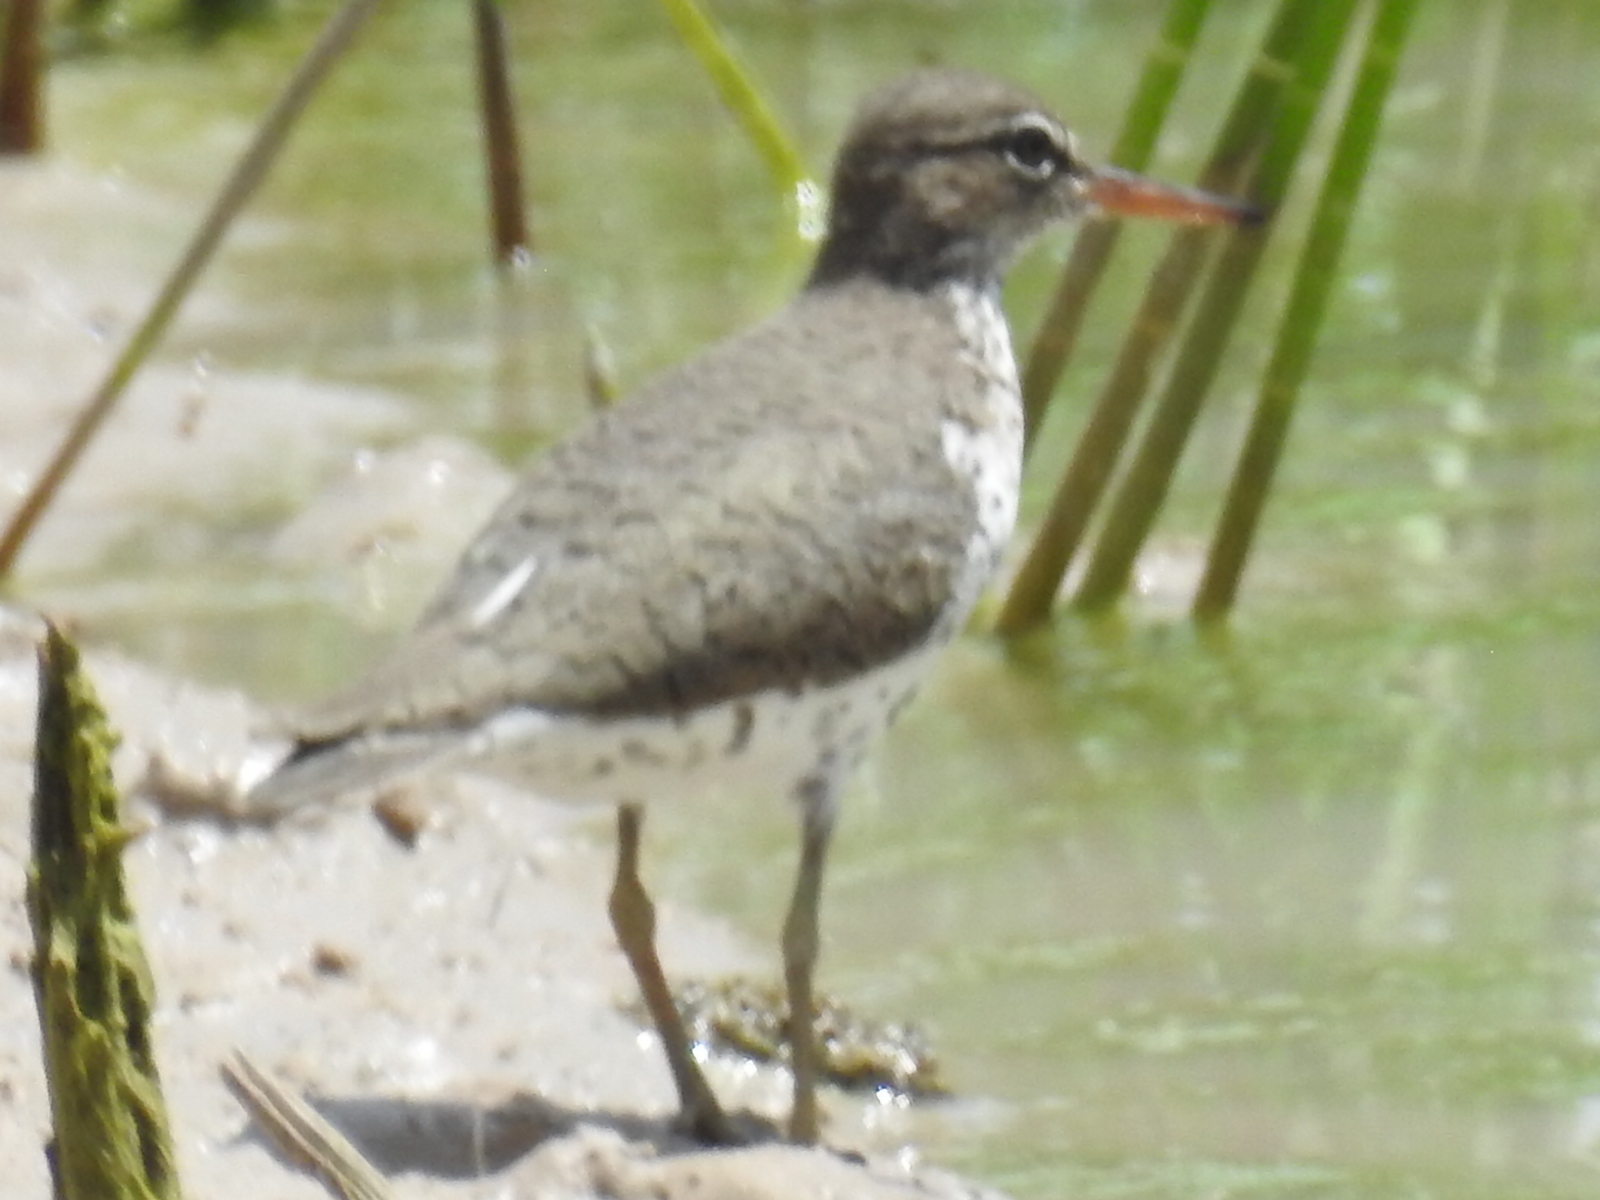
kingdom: Animalia
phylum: Chordata
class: Aves
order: Charadriiformes
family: Scolopacidae
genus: Actitis
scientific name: Actitis macularius
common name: Spotted sandpiper
